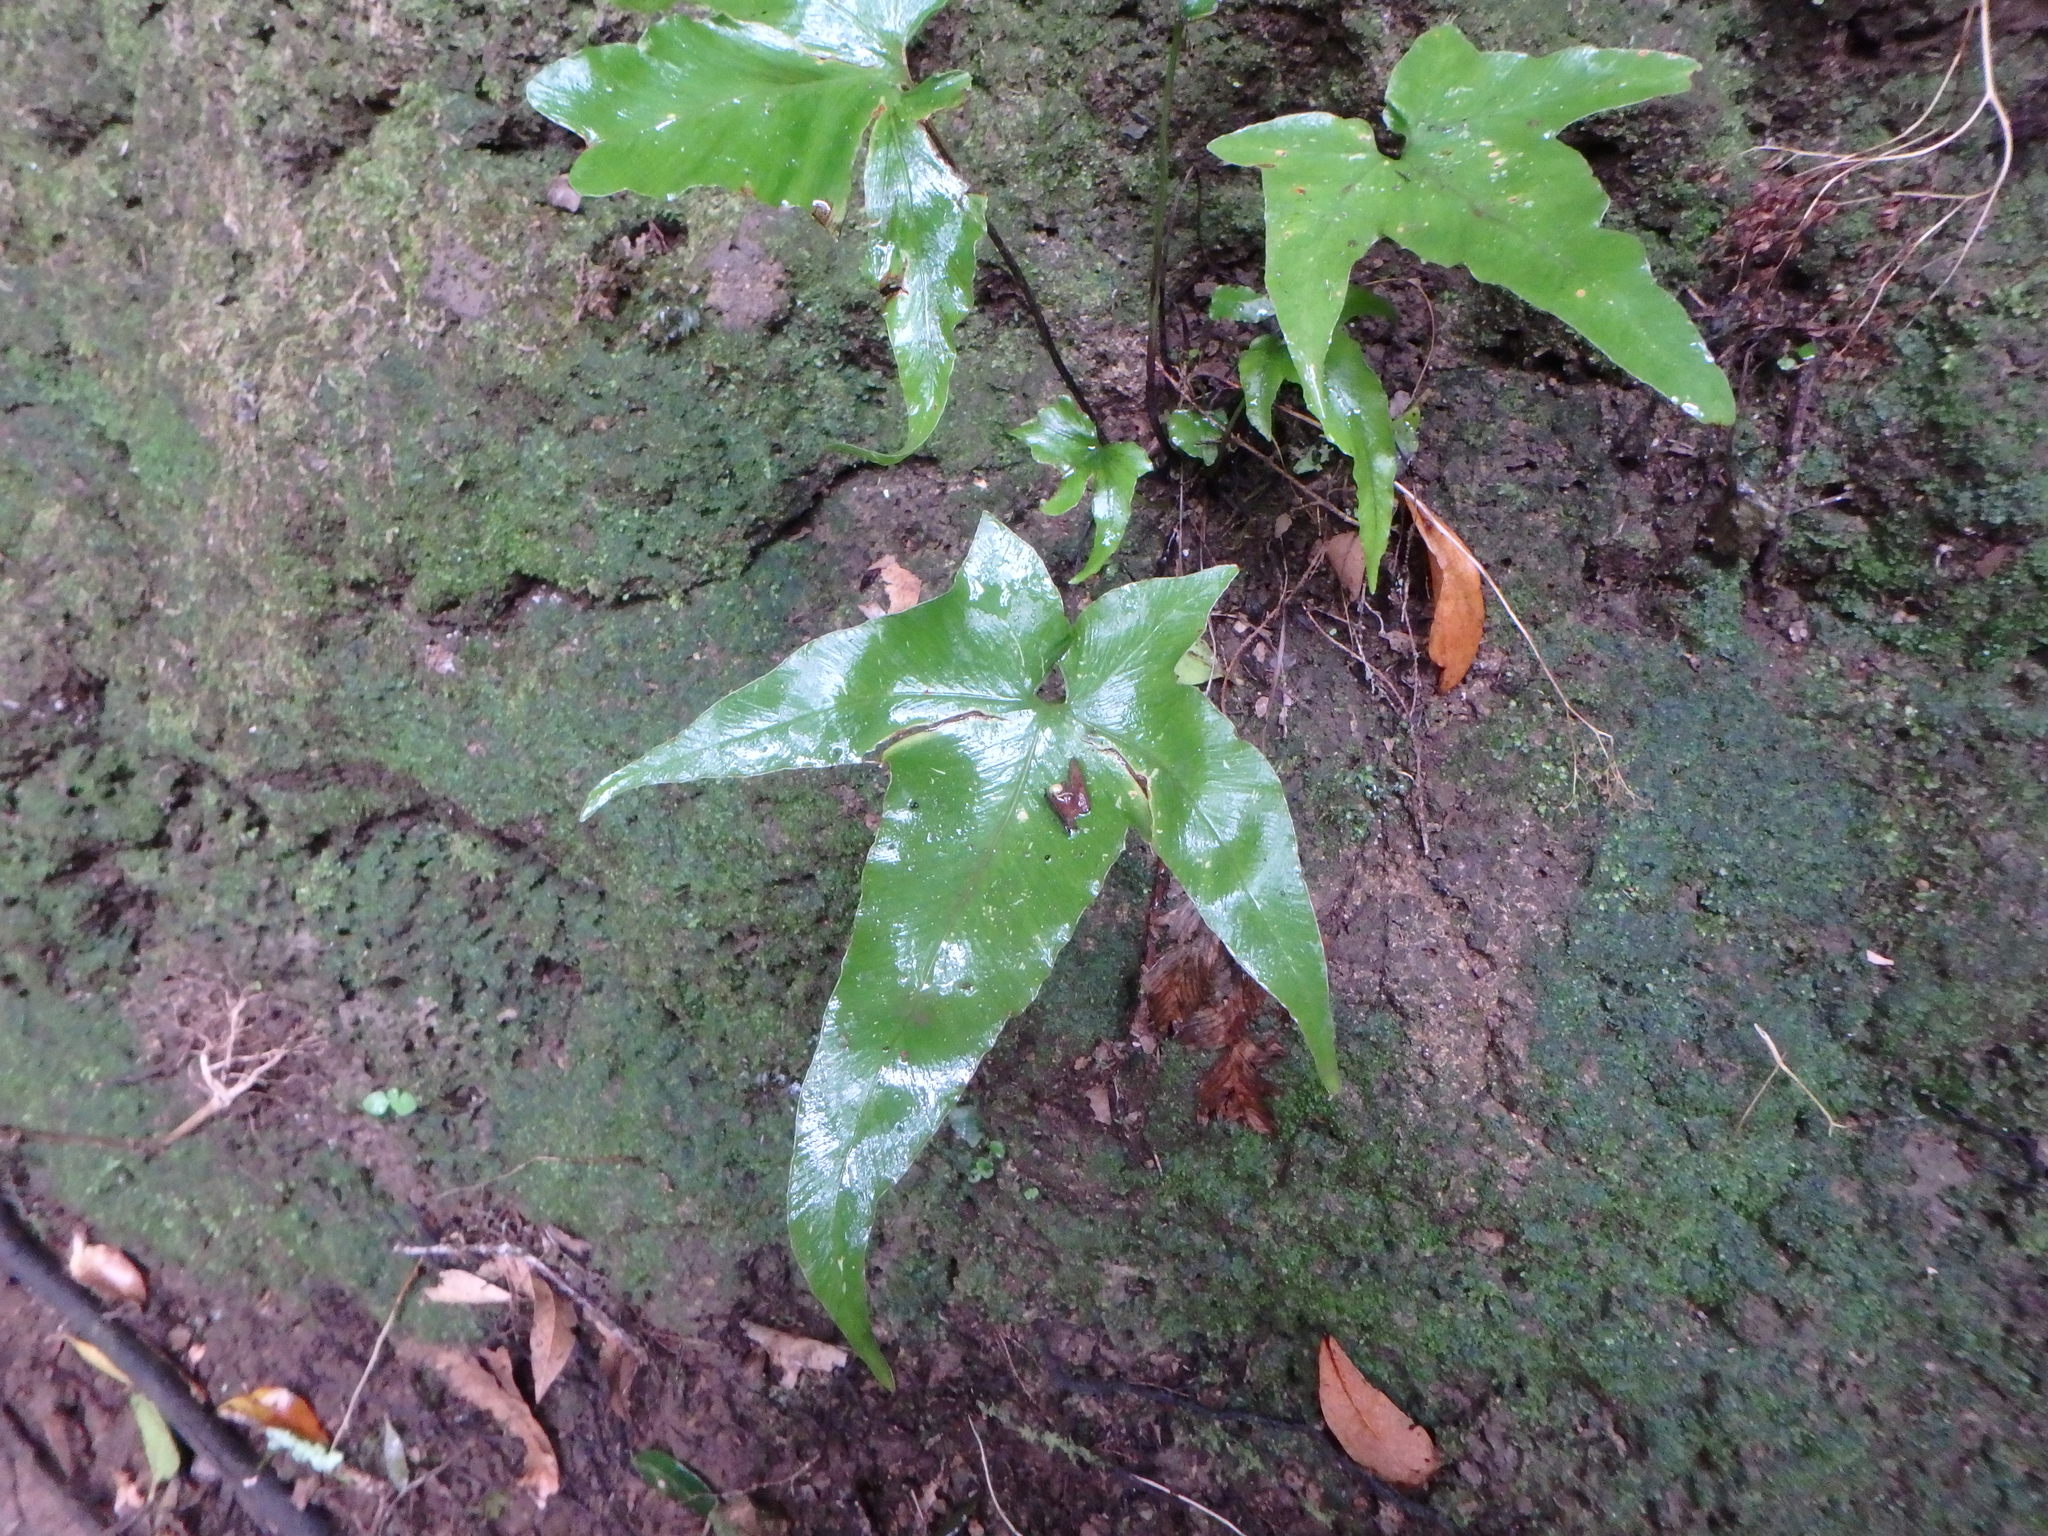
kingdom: Plantae
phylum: Tracheophyta
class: Polypodiopsida
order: Polypodiales
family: Aspleniaceae
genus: Asplenium
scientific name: Asplenium hemionitis
